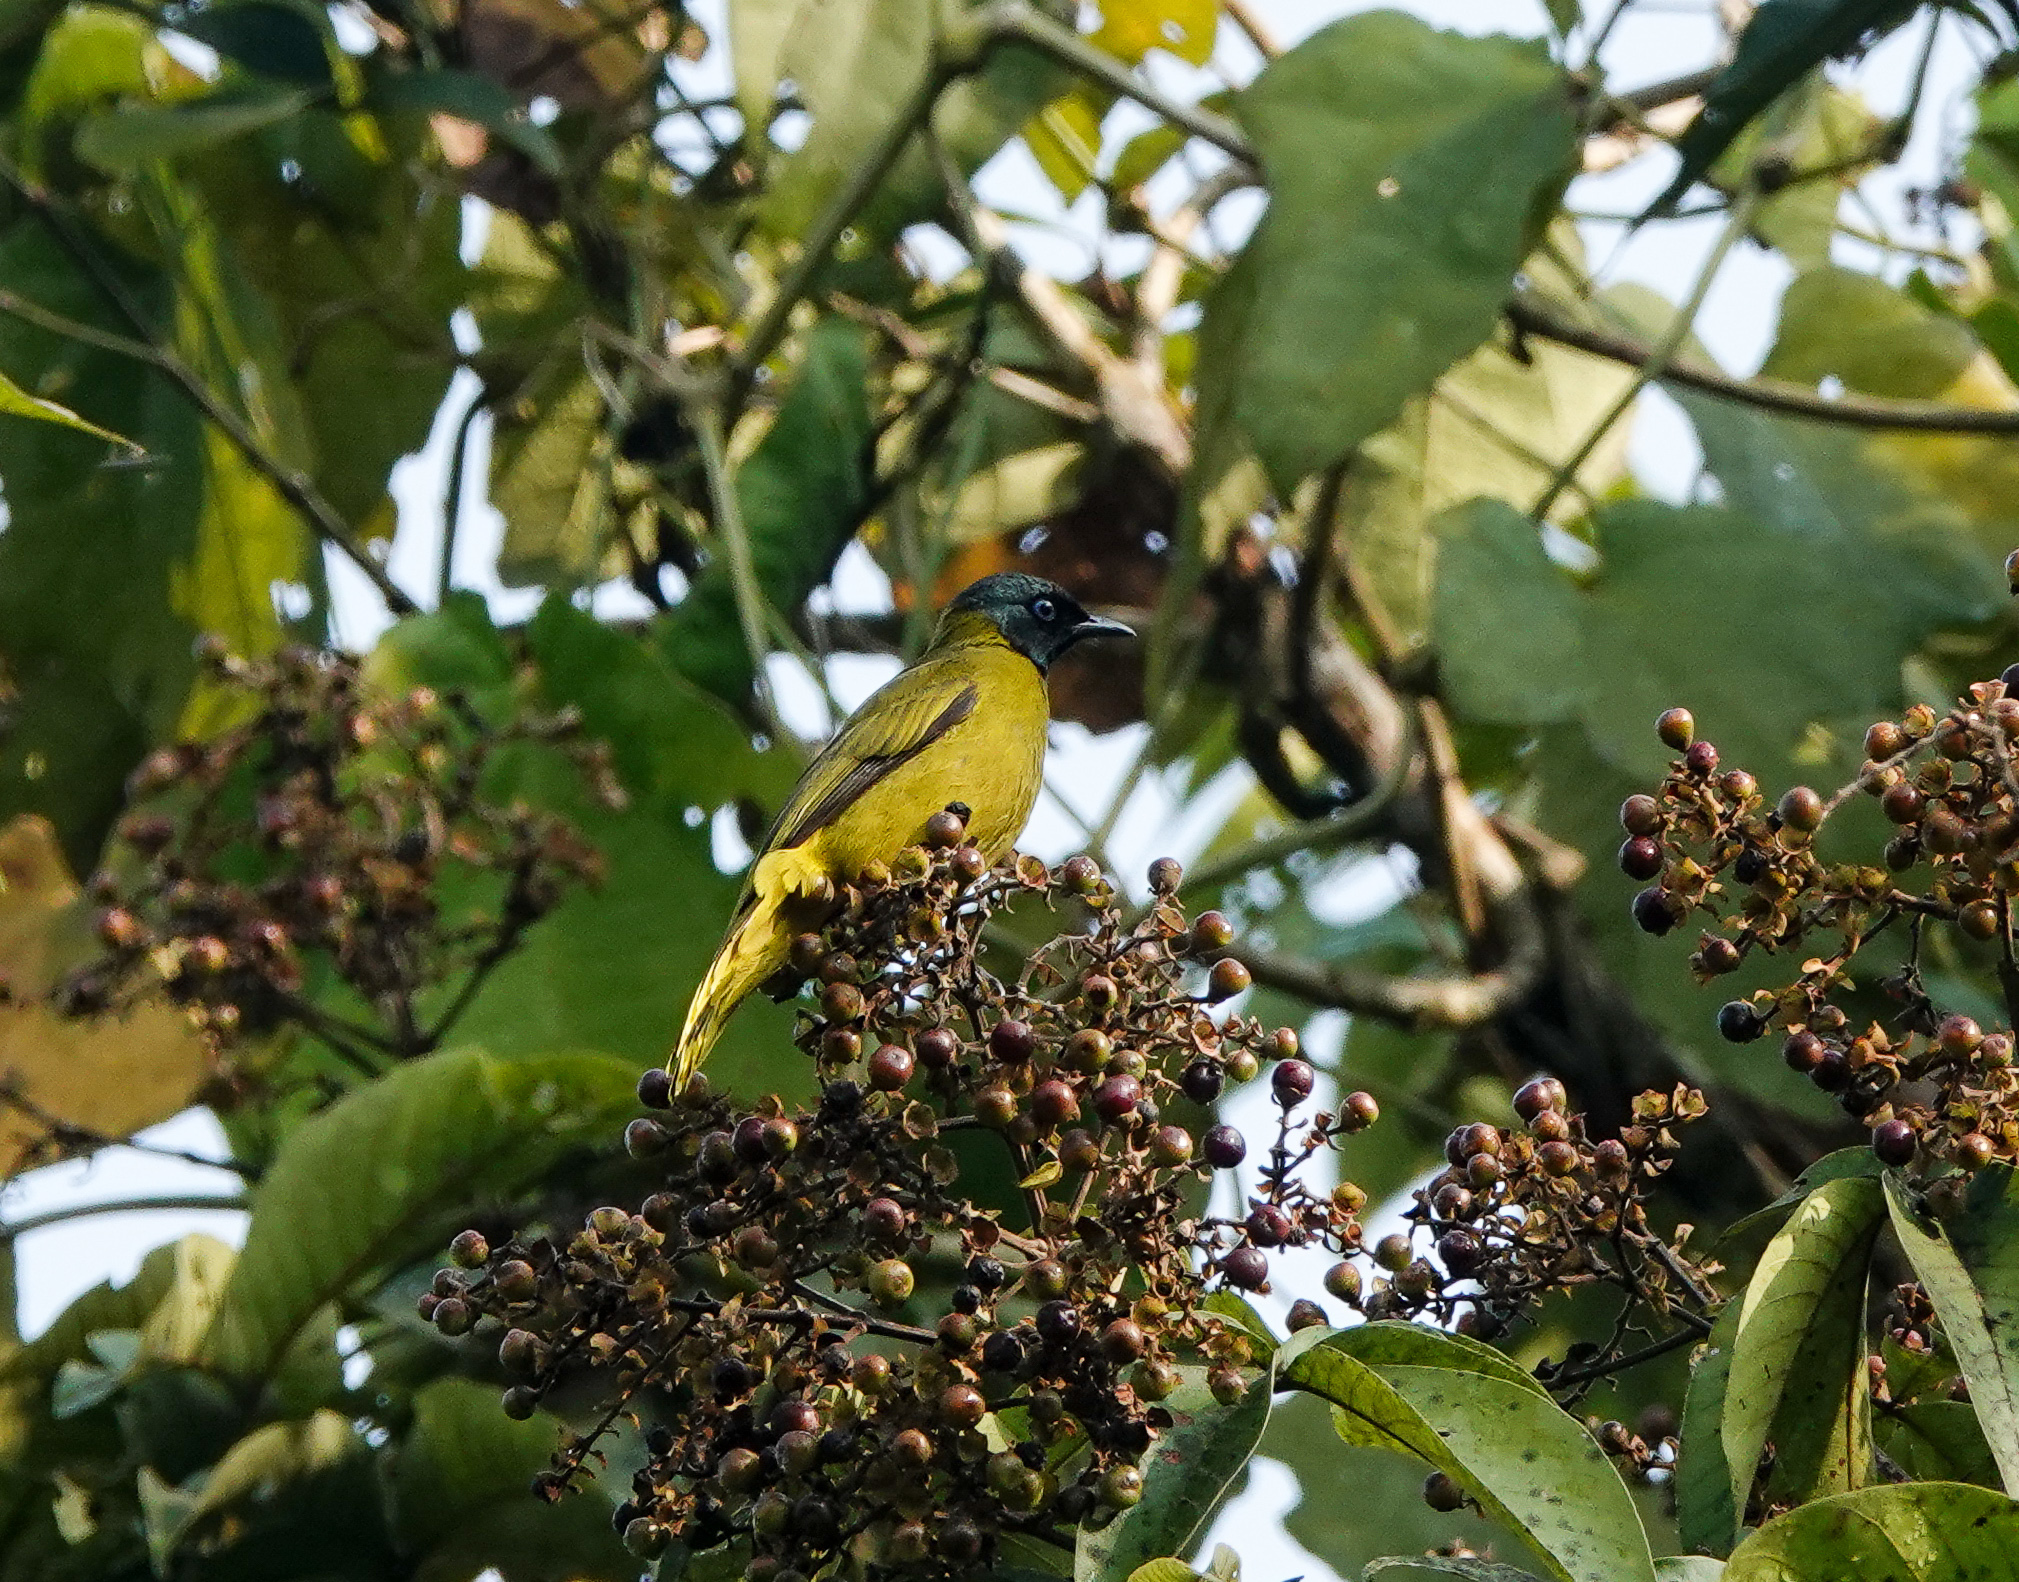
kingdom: Animalia
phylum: Chordata
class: Aves
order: Passeriformes
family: Pycnonotidae
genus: Microtarsus
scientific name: Microtarsus
